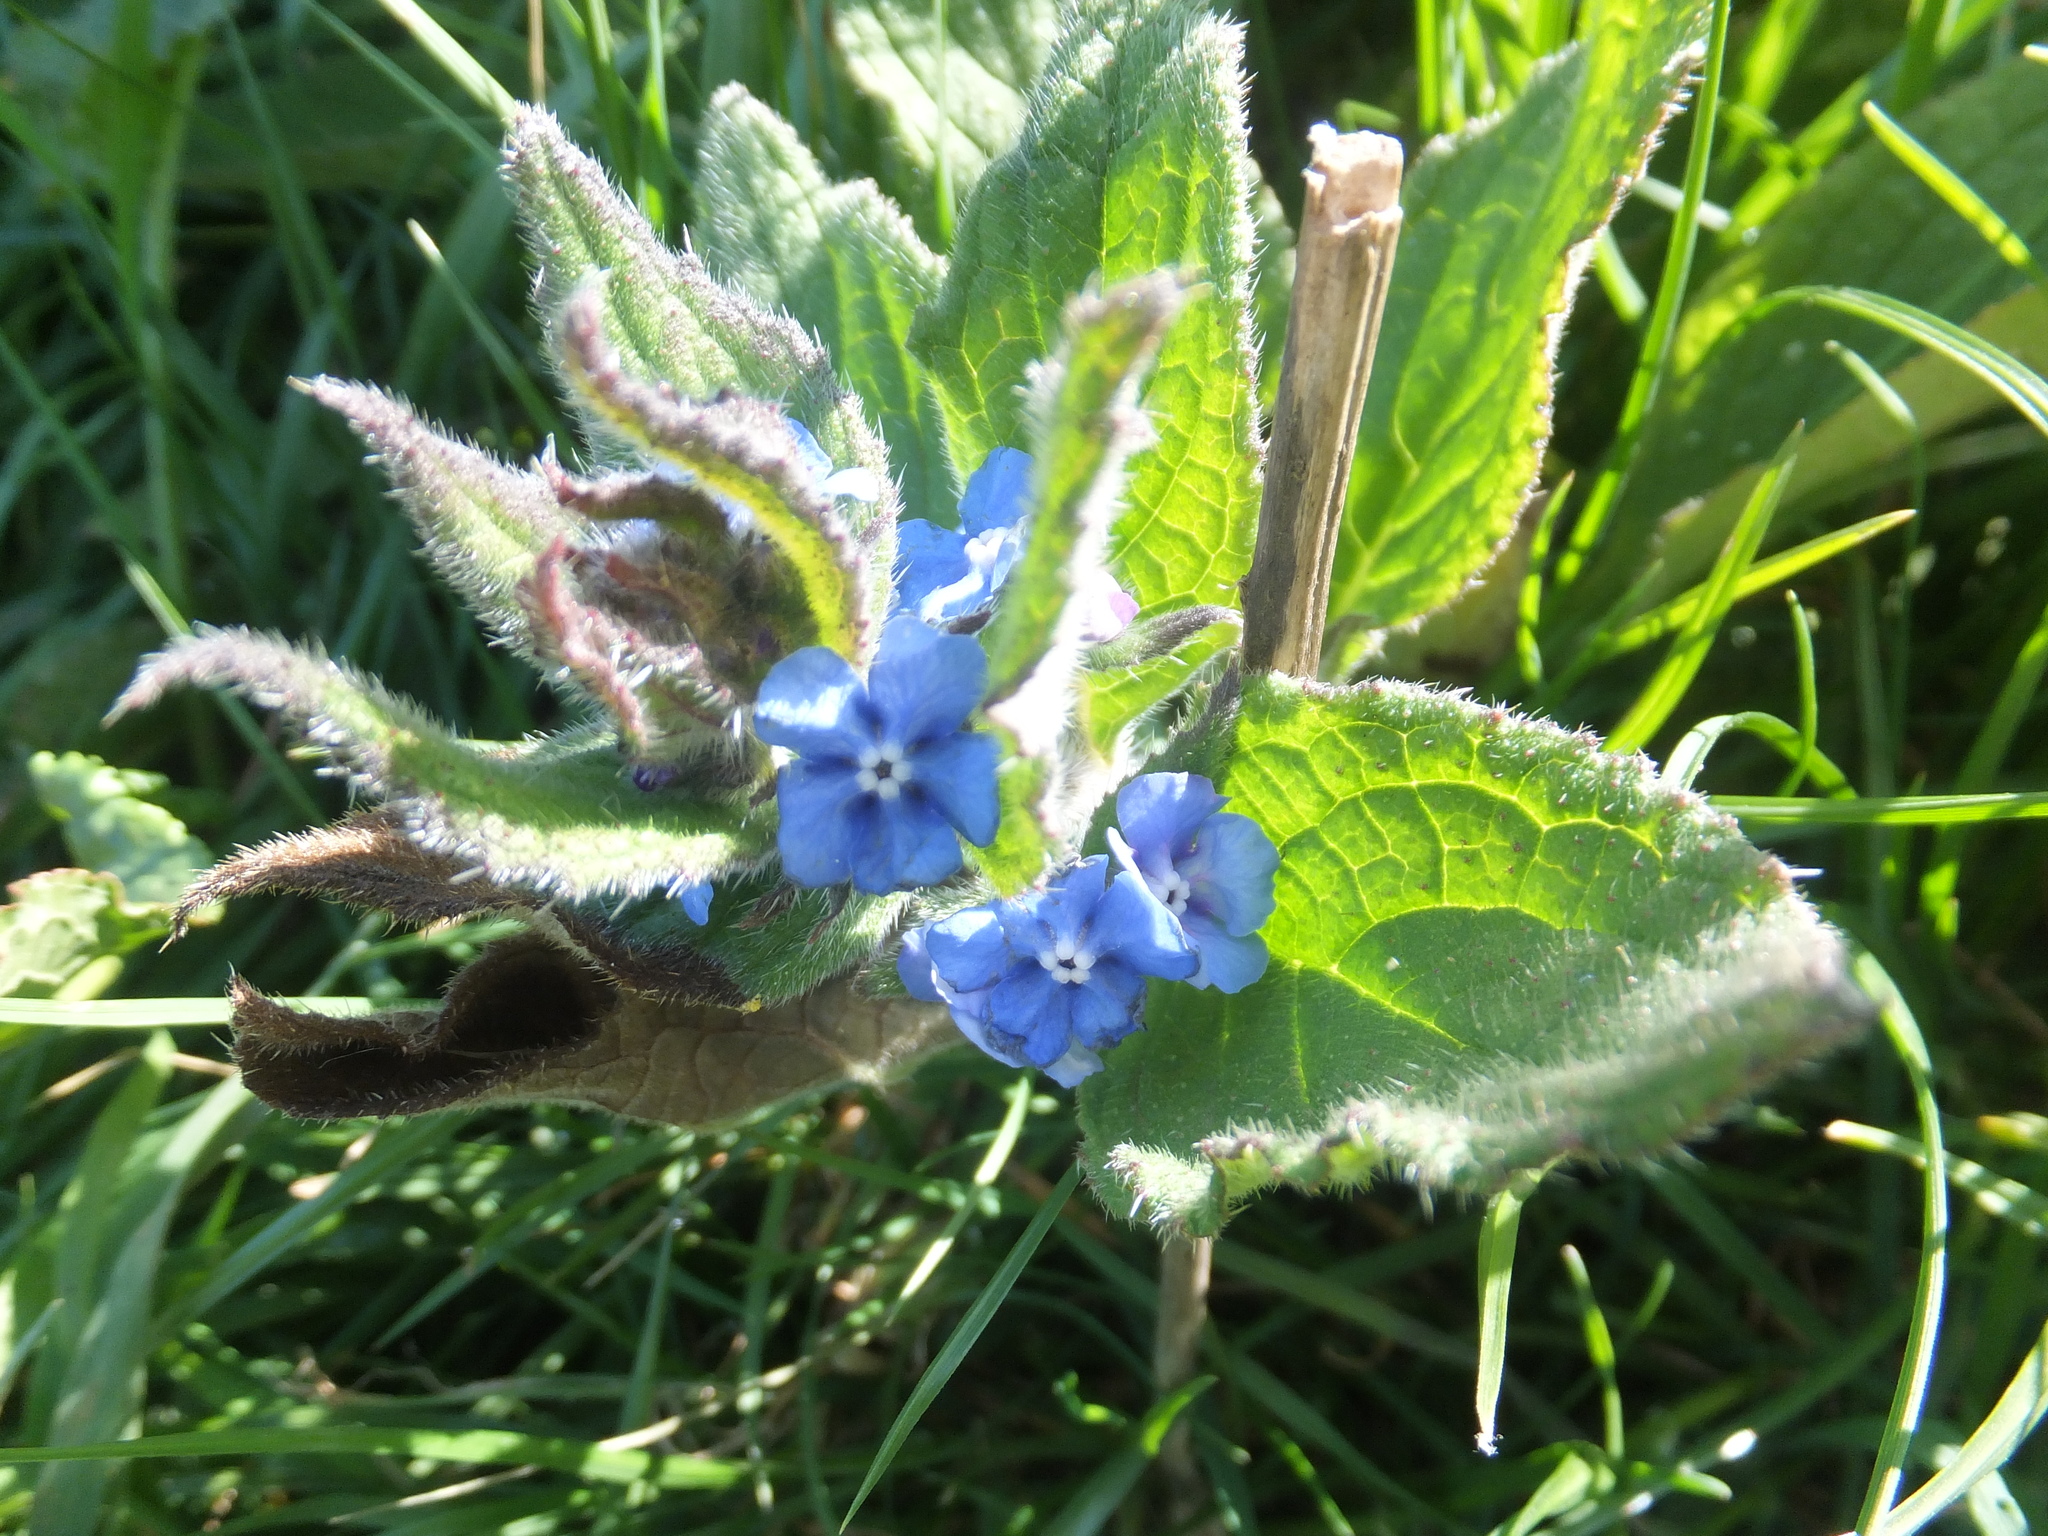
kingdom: Plantae
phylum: Tracheophyta
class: Magnoliopsida
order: Boraginales
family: Boraginaceae
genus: Pentaglottis
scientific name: Pentaglottis sempervirens
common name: Green alkanet
